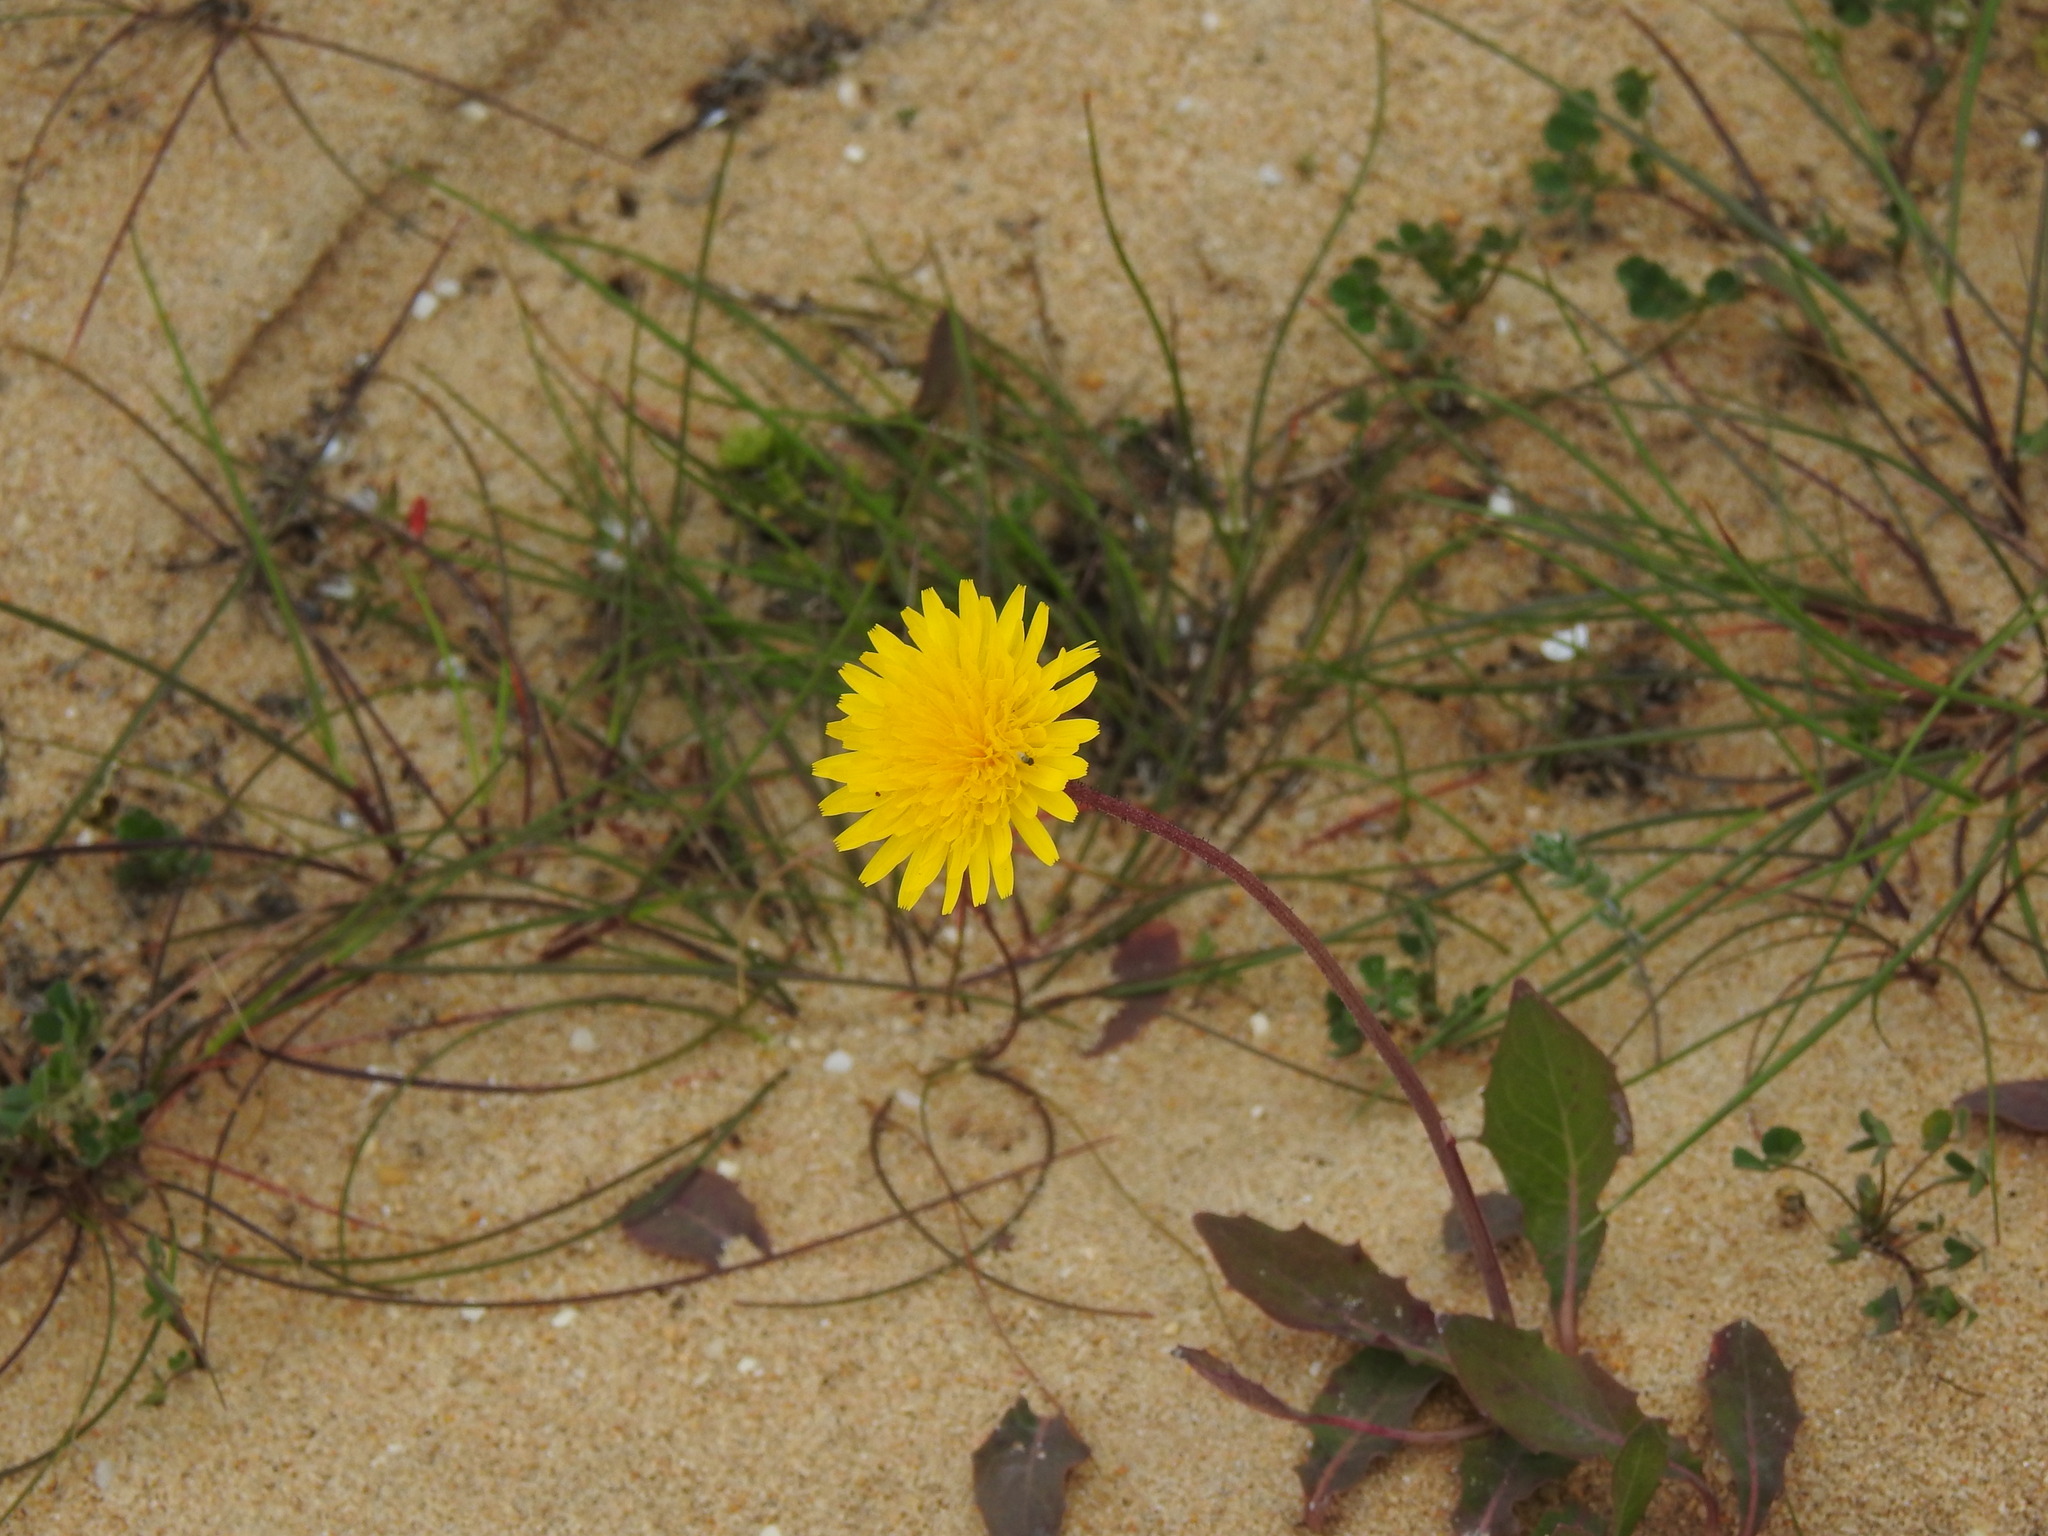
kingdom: Plantae
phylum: Tracheophyta
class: Magnoliopsida
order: Asterales
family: Asteraceae
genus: Aetheorhiza
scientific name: Aetheorhiza bulbosa
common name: Tuberous hawk's-beard
